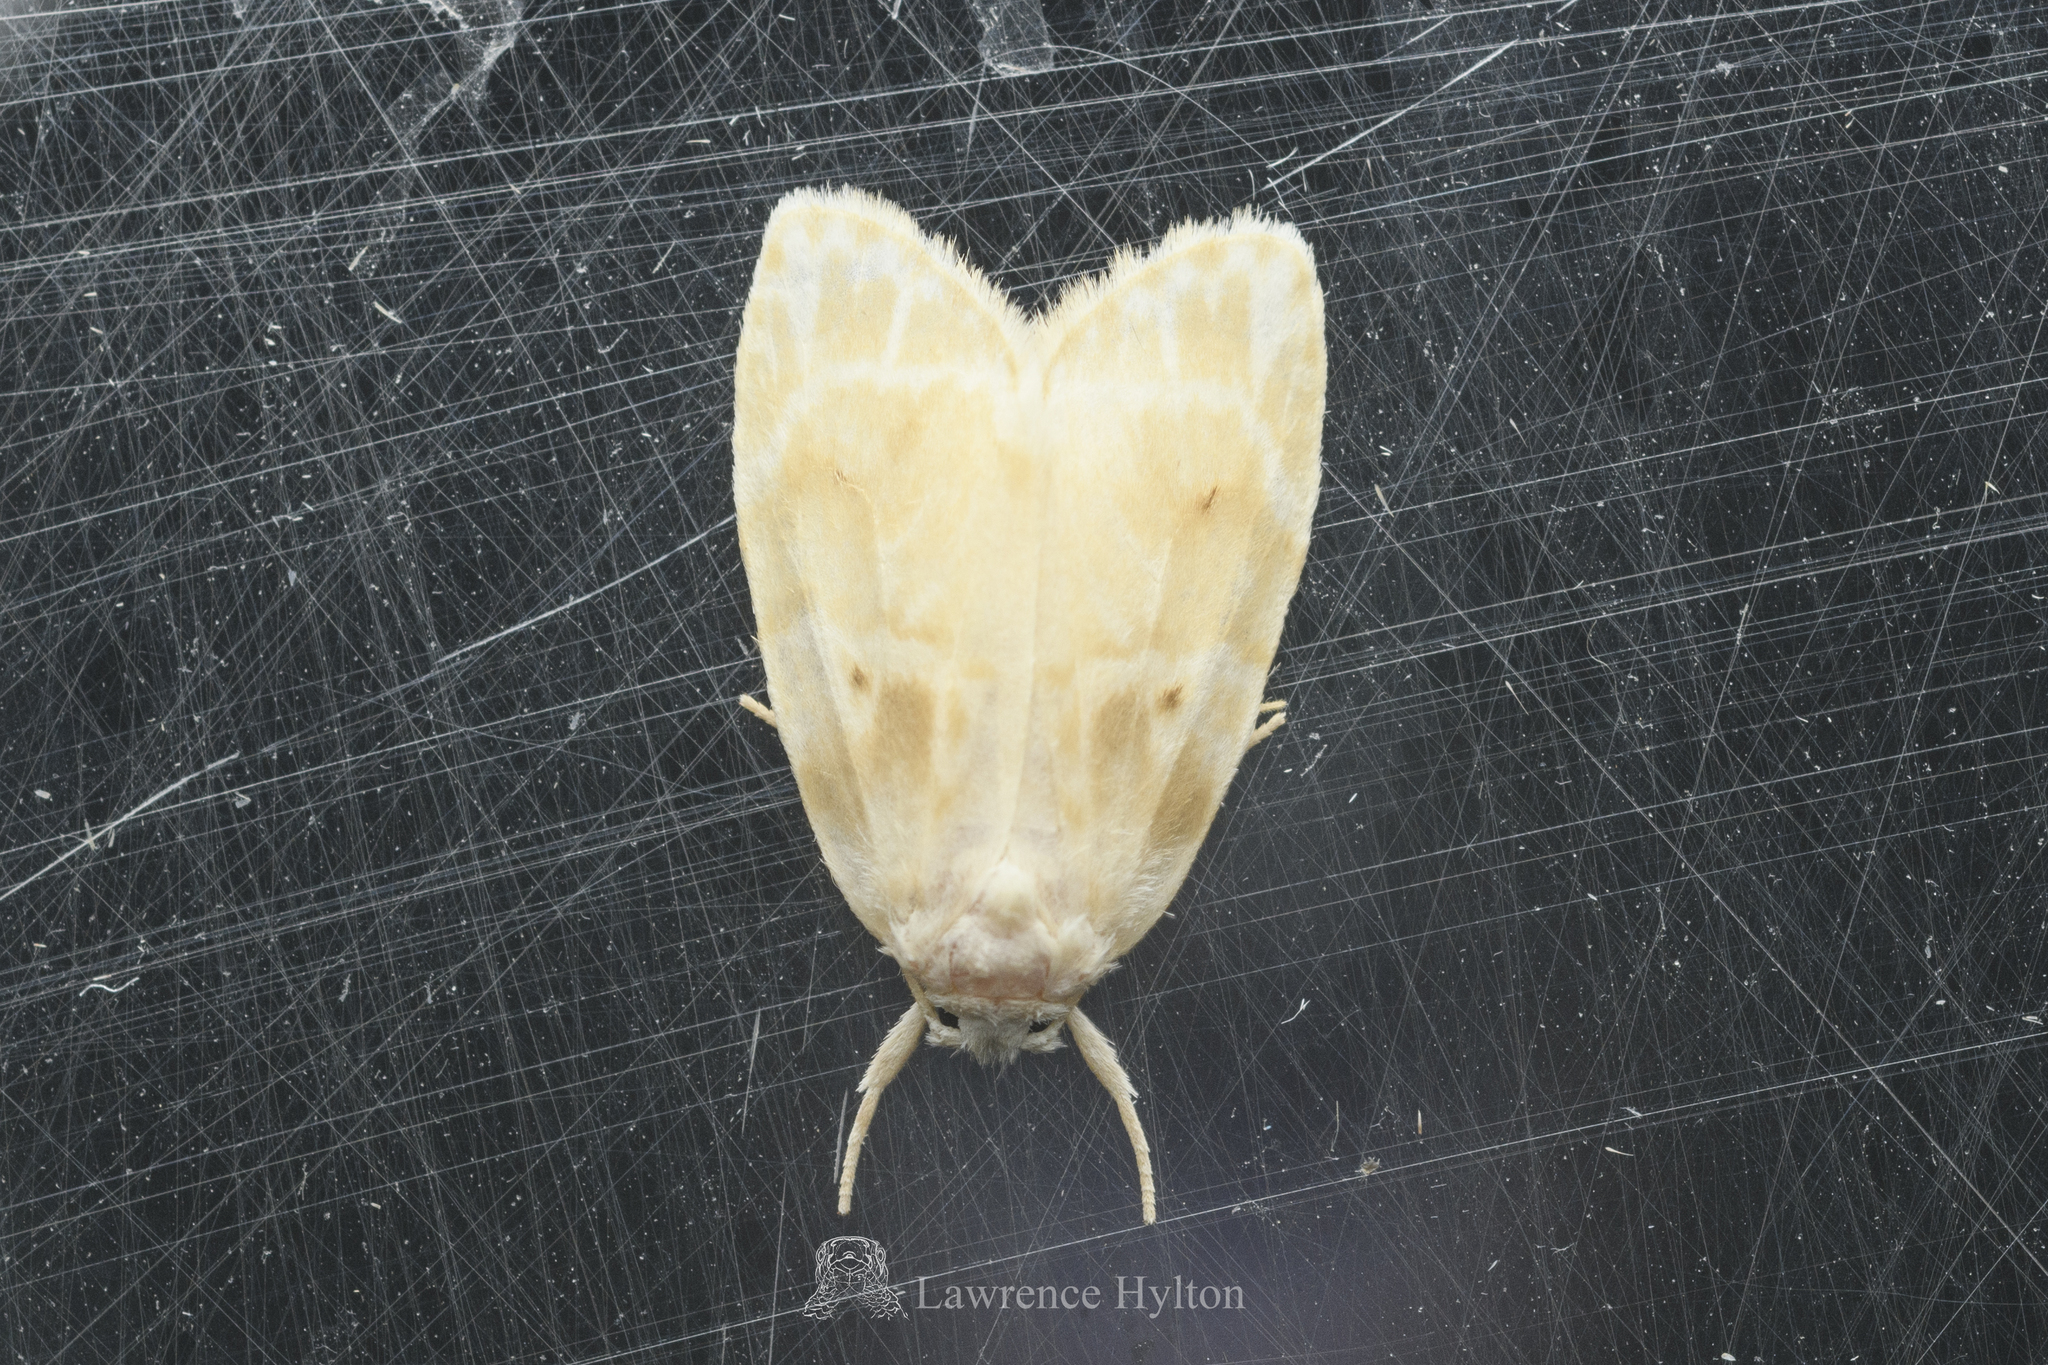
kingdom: Animalia
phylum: Arthropoda
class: Insecta
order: Lepidoptera
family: Erebidae
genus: Schistophleps
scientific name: Schistophleps bipuncta
